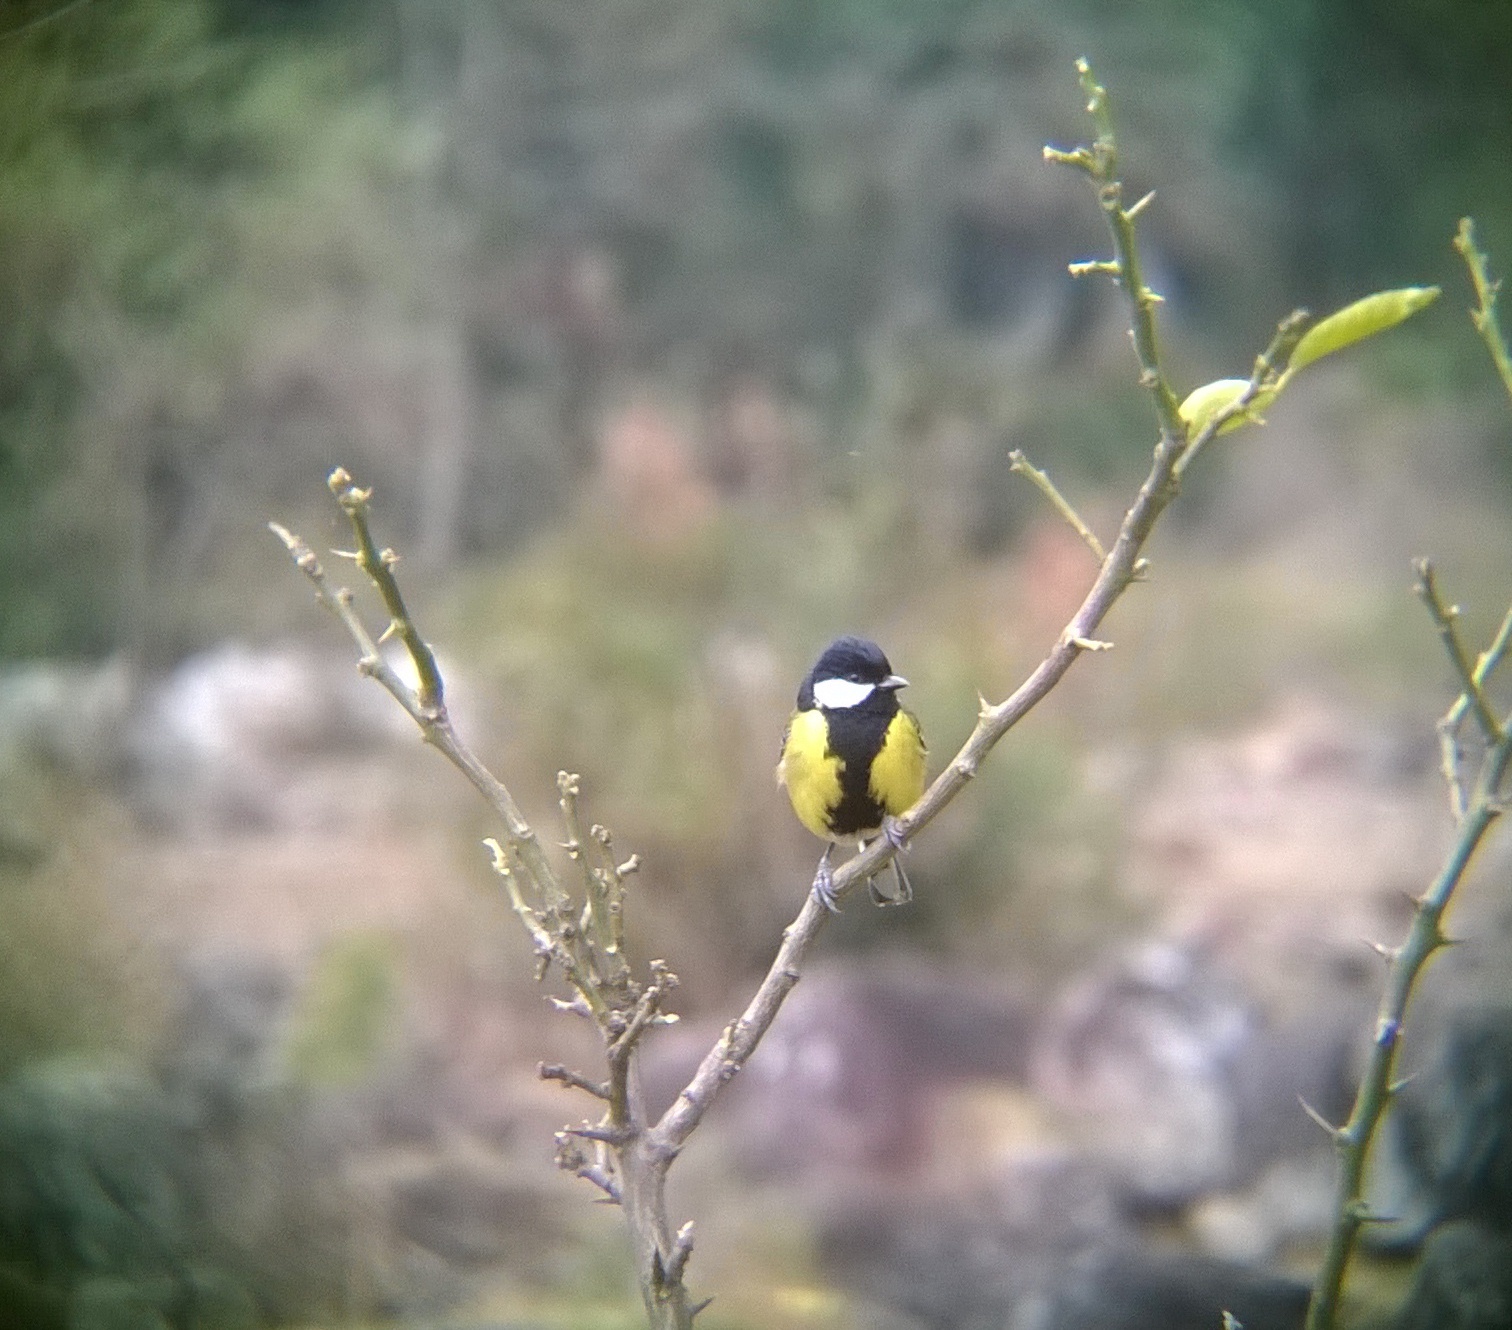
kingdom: Animalia
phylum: Chordata
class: Aves
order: Passeriformes
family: Paridae
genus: Parus
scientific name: Parus monticolus
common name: Green-backed tit
